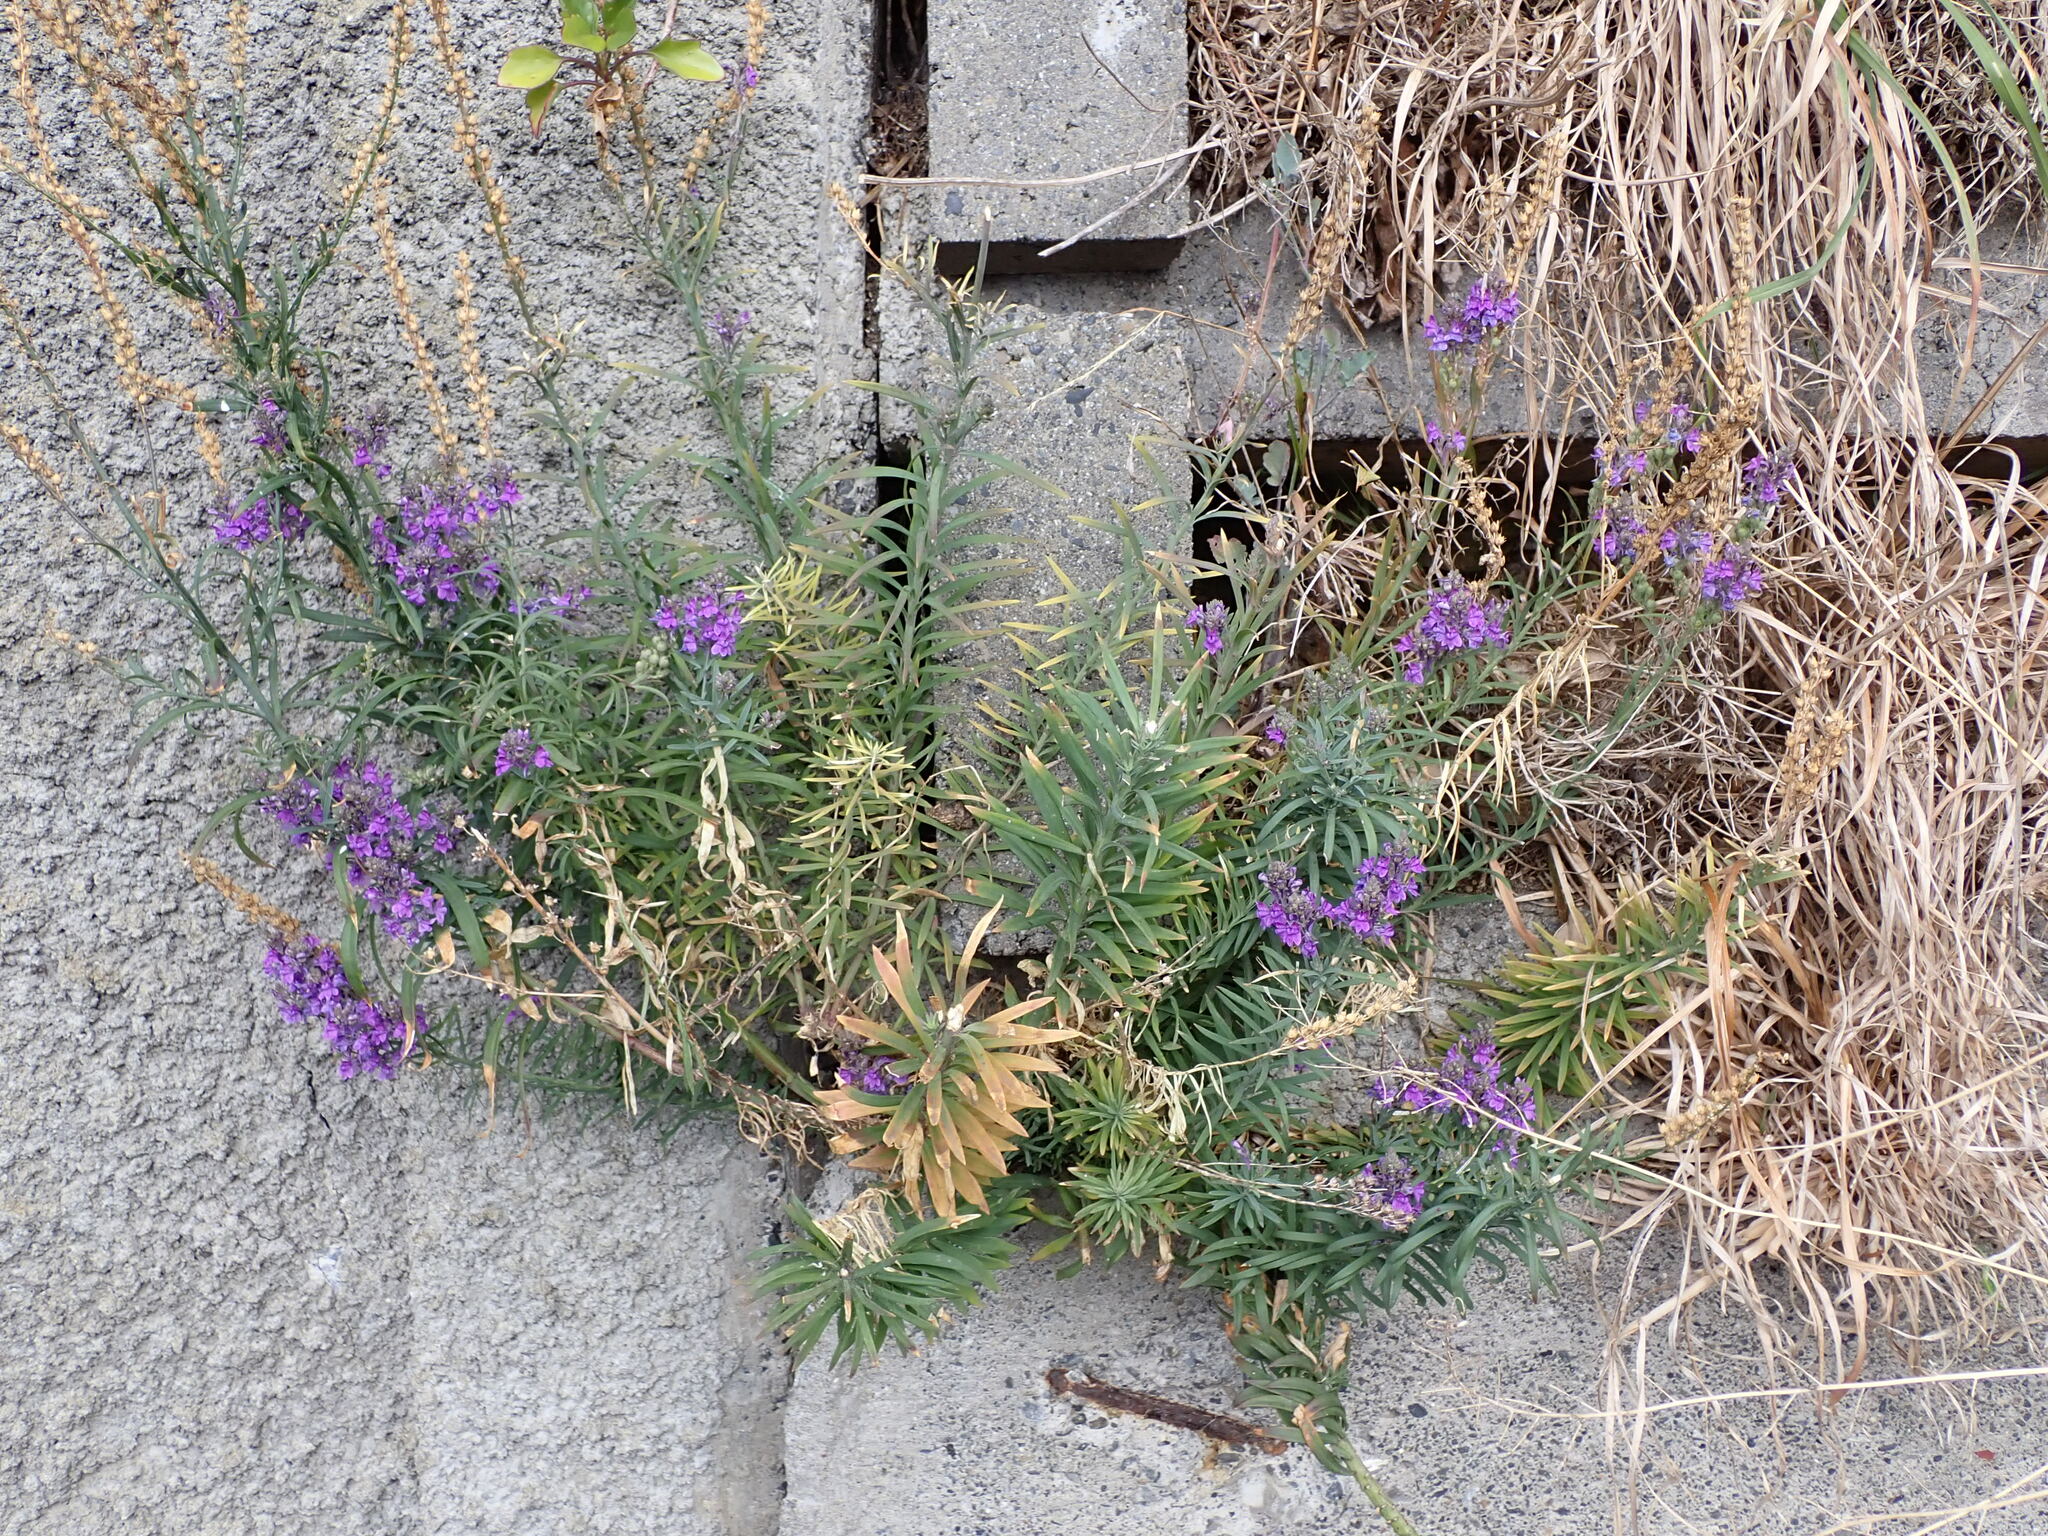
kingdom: Plantae
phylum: Tracheophyta
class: Magnoliopsida
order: Lamiales
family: Plantaginaceae
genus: Linaria
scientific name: Linaria purpurea
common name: Purple toadflax
